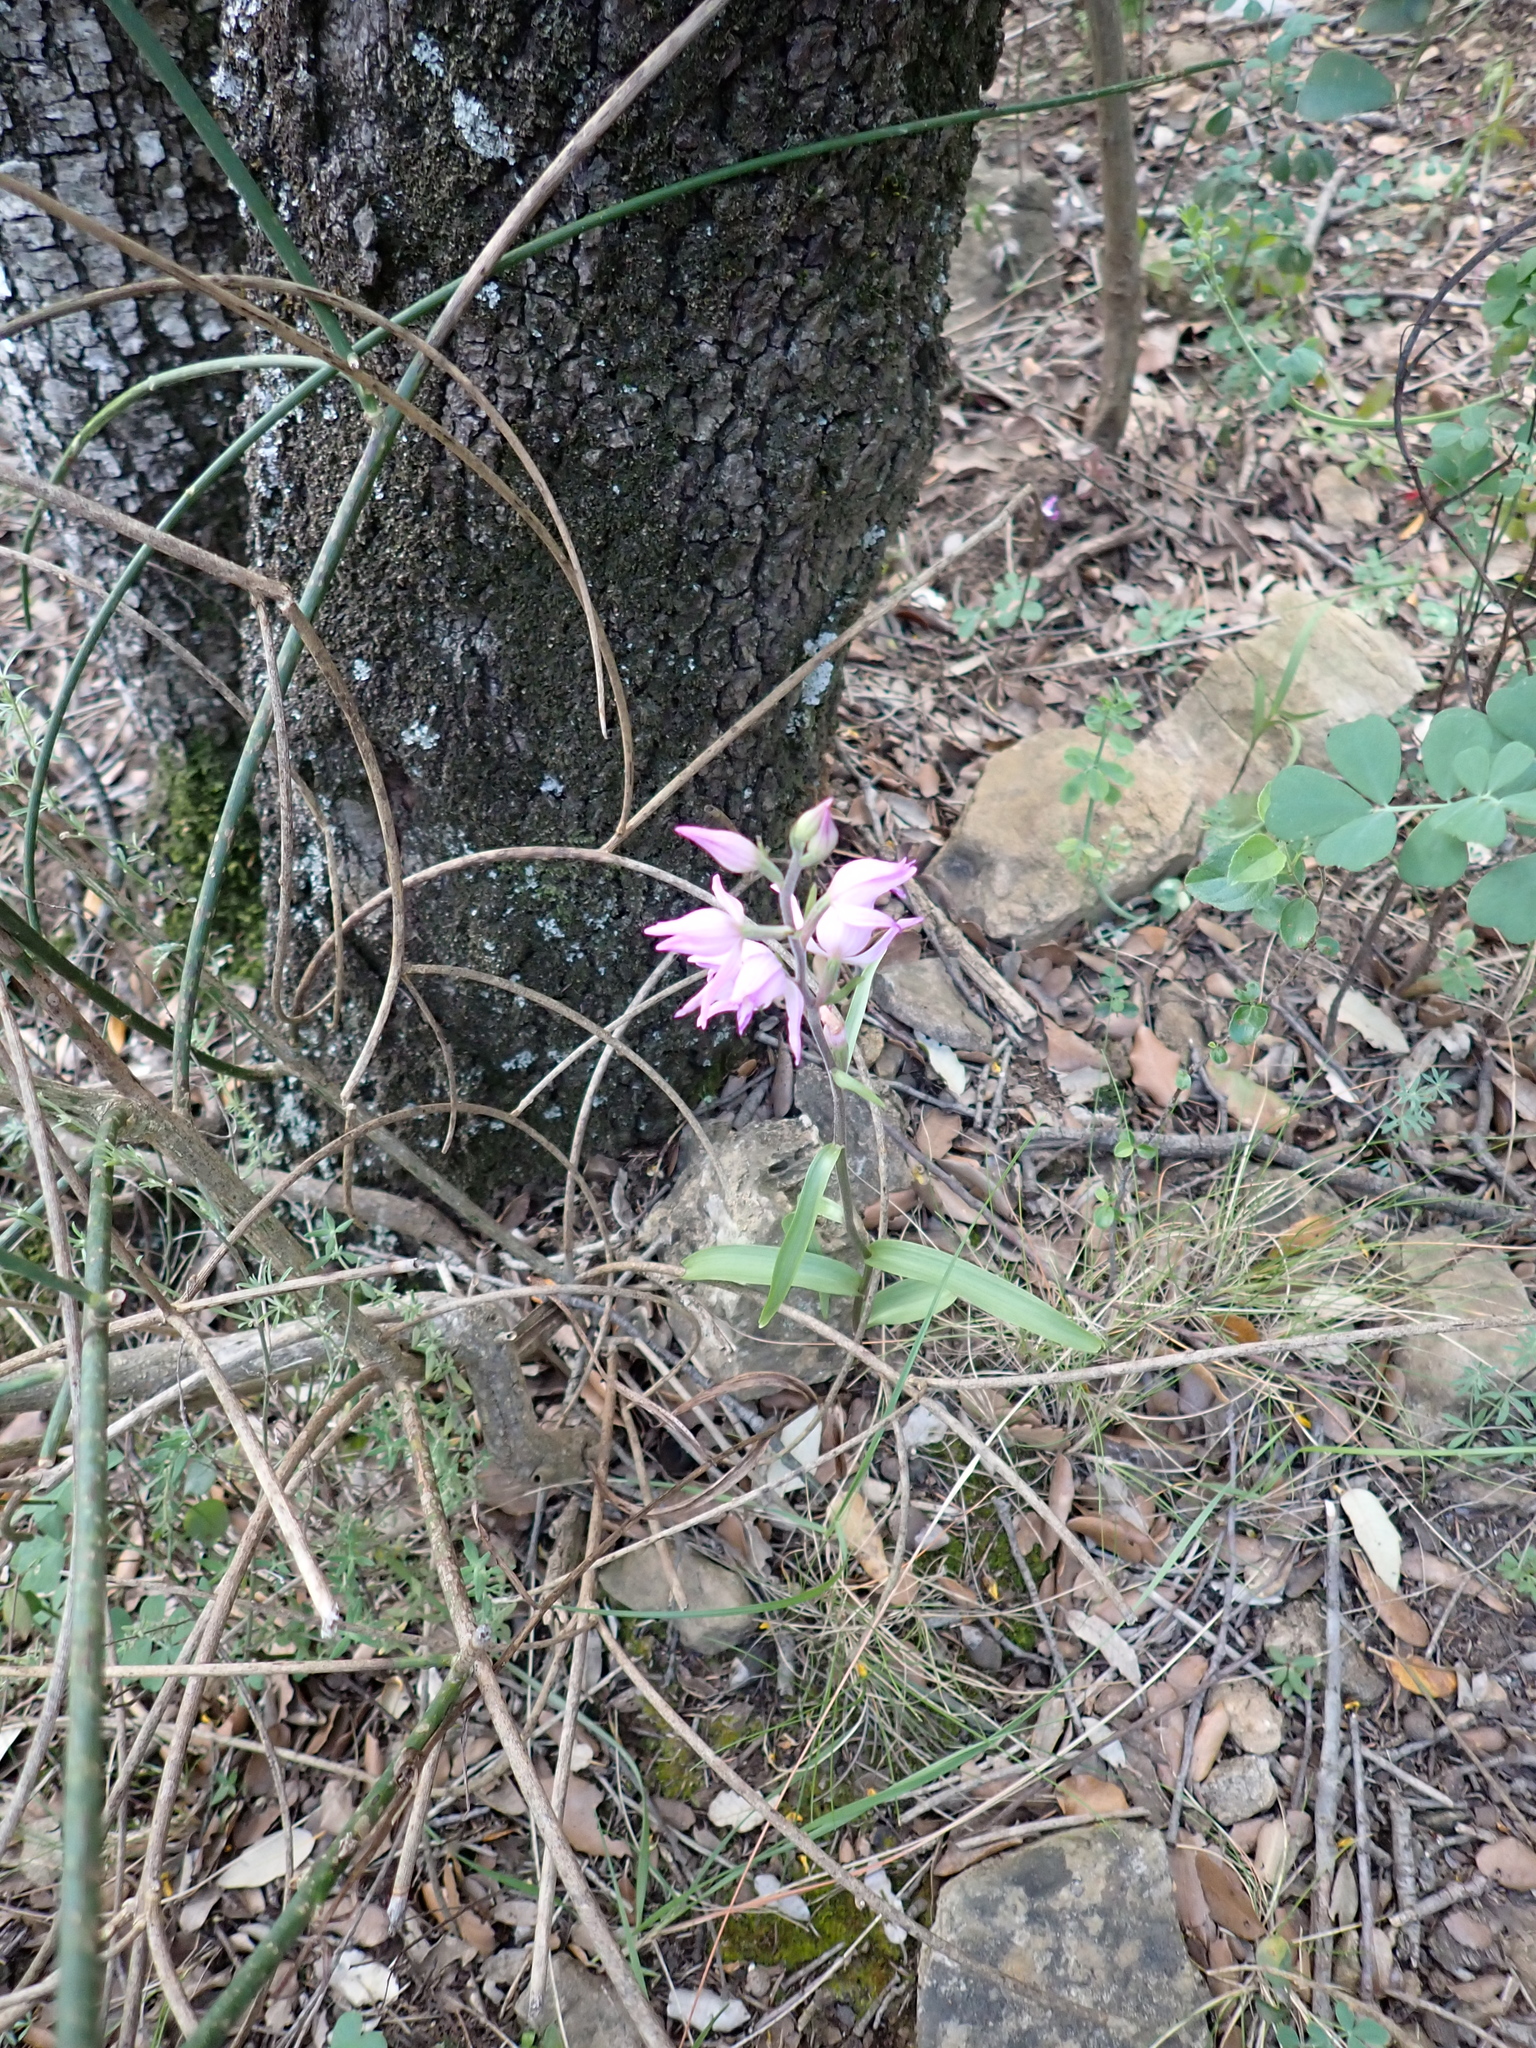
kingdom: Plantae
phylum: Tracheophyta
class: Liliopsida
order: Asparagales
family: Orchidaceae
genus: Cephalanthera
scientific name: Cephalanthera rubra
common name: Red helleborine
